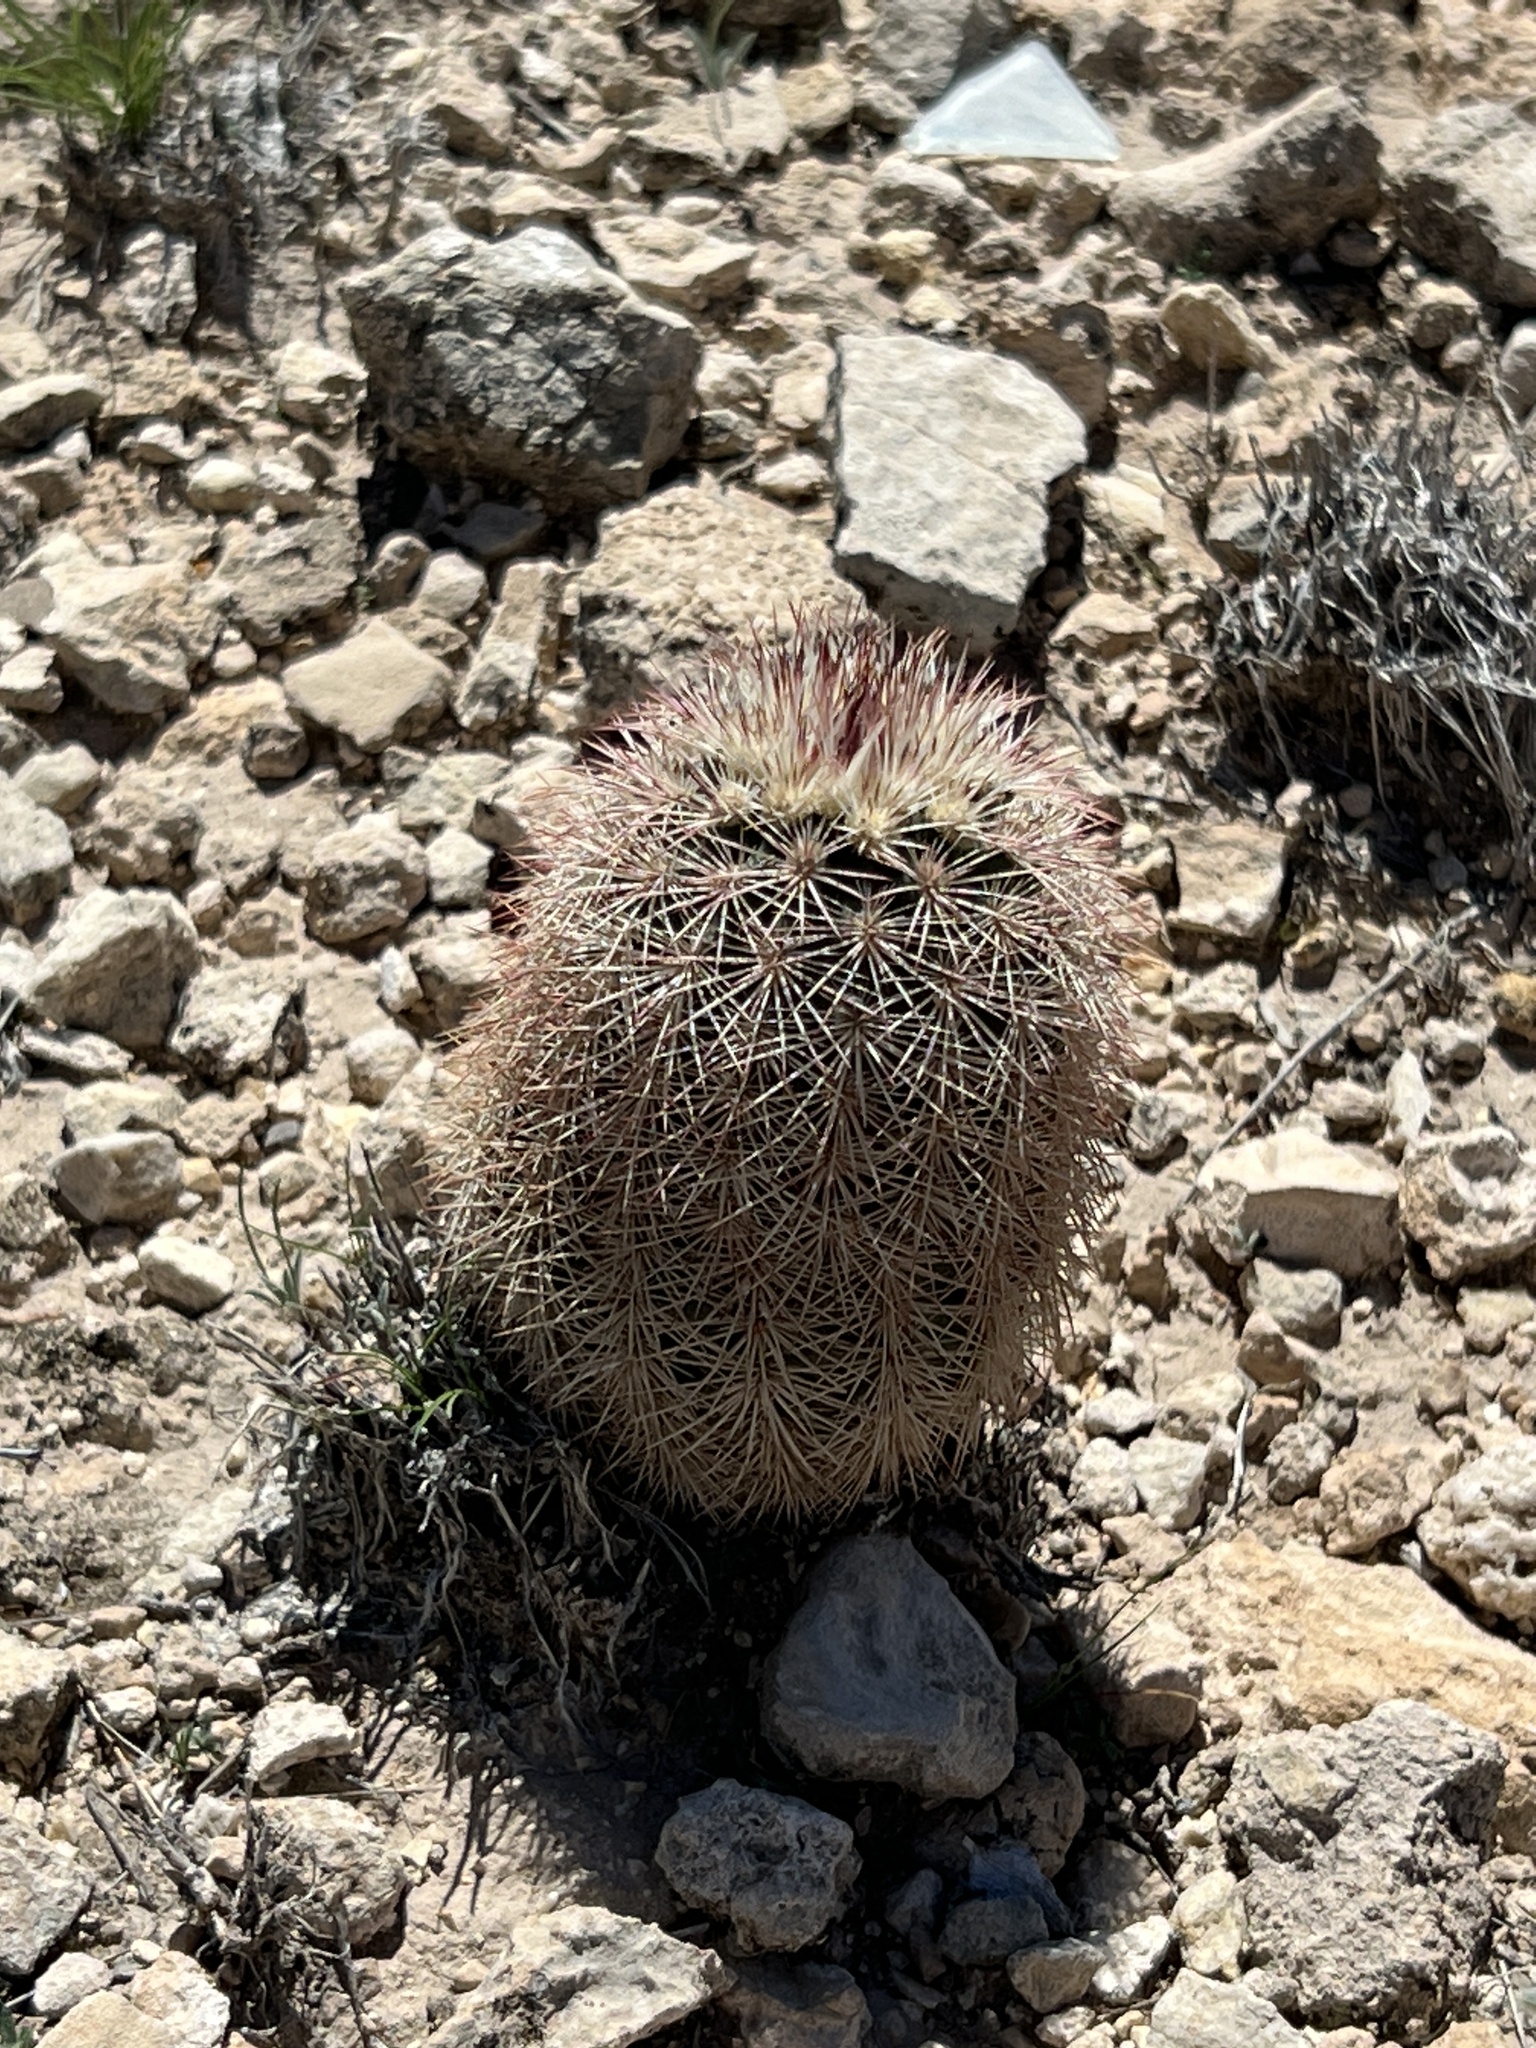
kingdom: Plantae
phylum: Tracheophyta
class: Magnoliopsida
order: Caryophyllales
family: Cactaceae
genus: Echinocereus
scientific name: Echinocereus dasyacanthus
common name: Spiny hedgehog cactus
